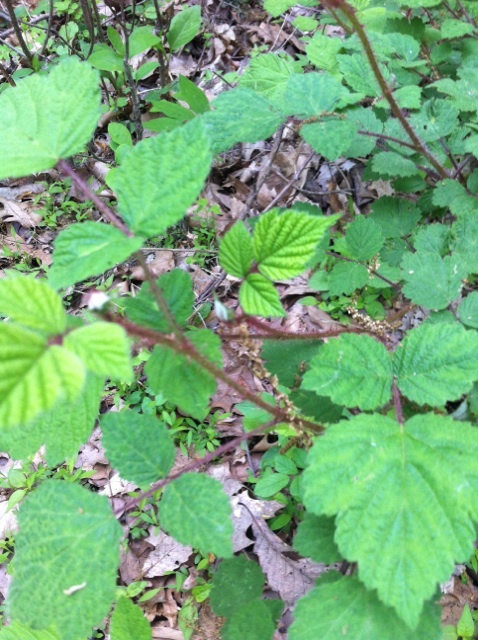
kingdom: Plantae
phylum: Tracheophyta
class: Magnoliopsida
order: Rosales
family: Rosaceae
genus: Rubus
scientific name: Rubus phoenicolasius
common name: Japanese wineberry
